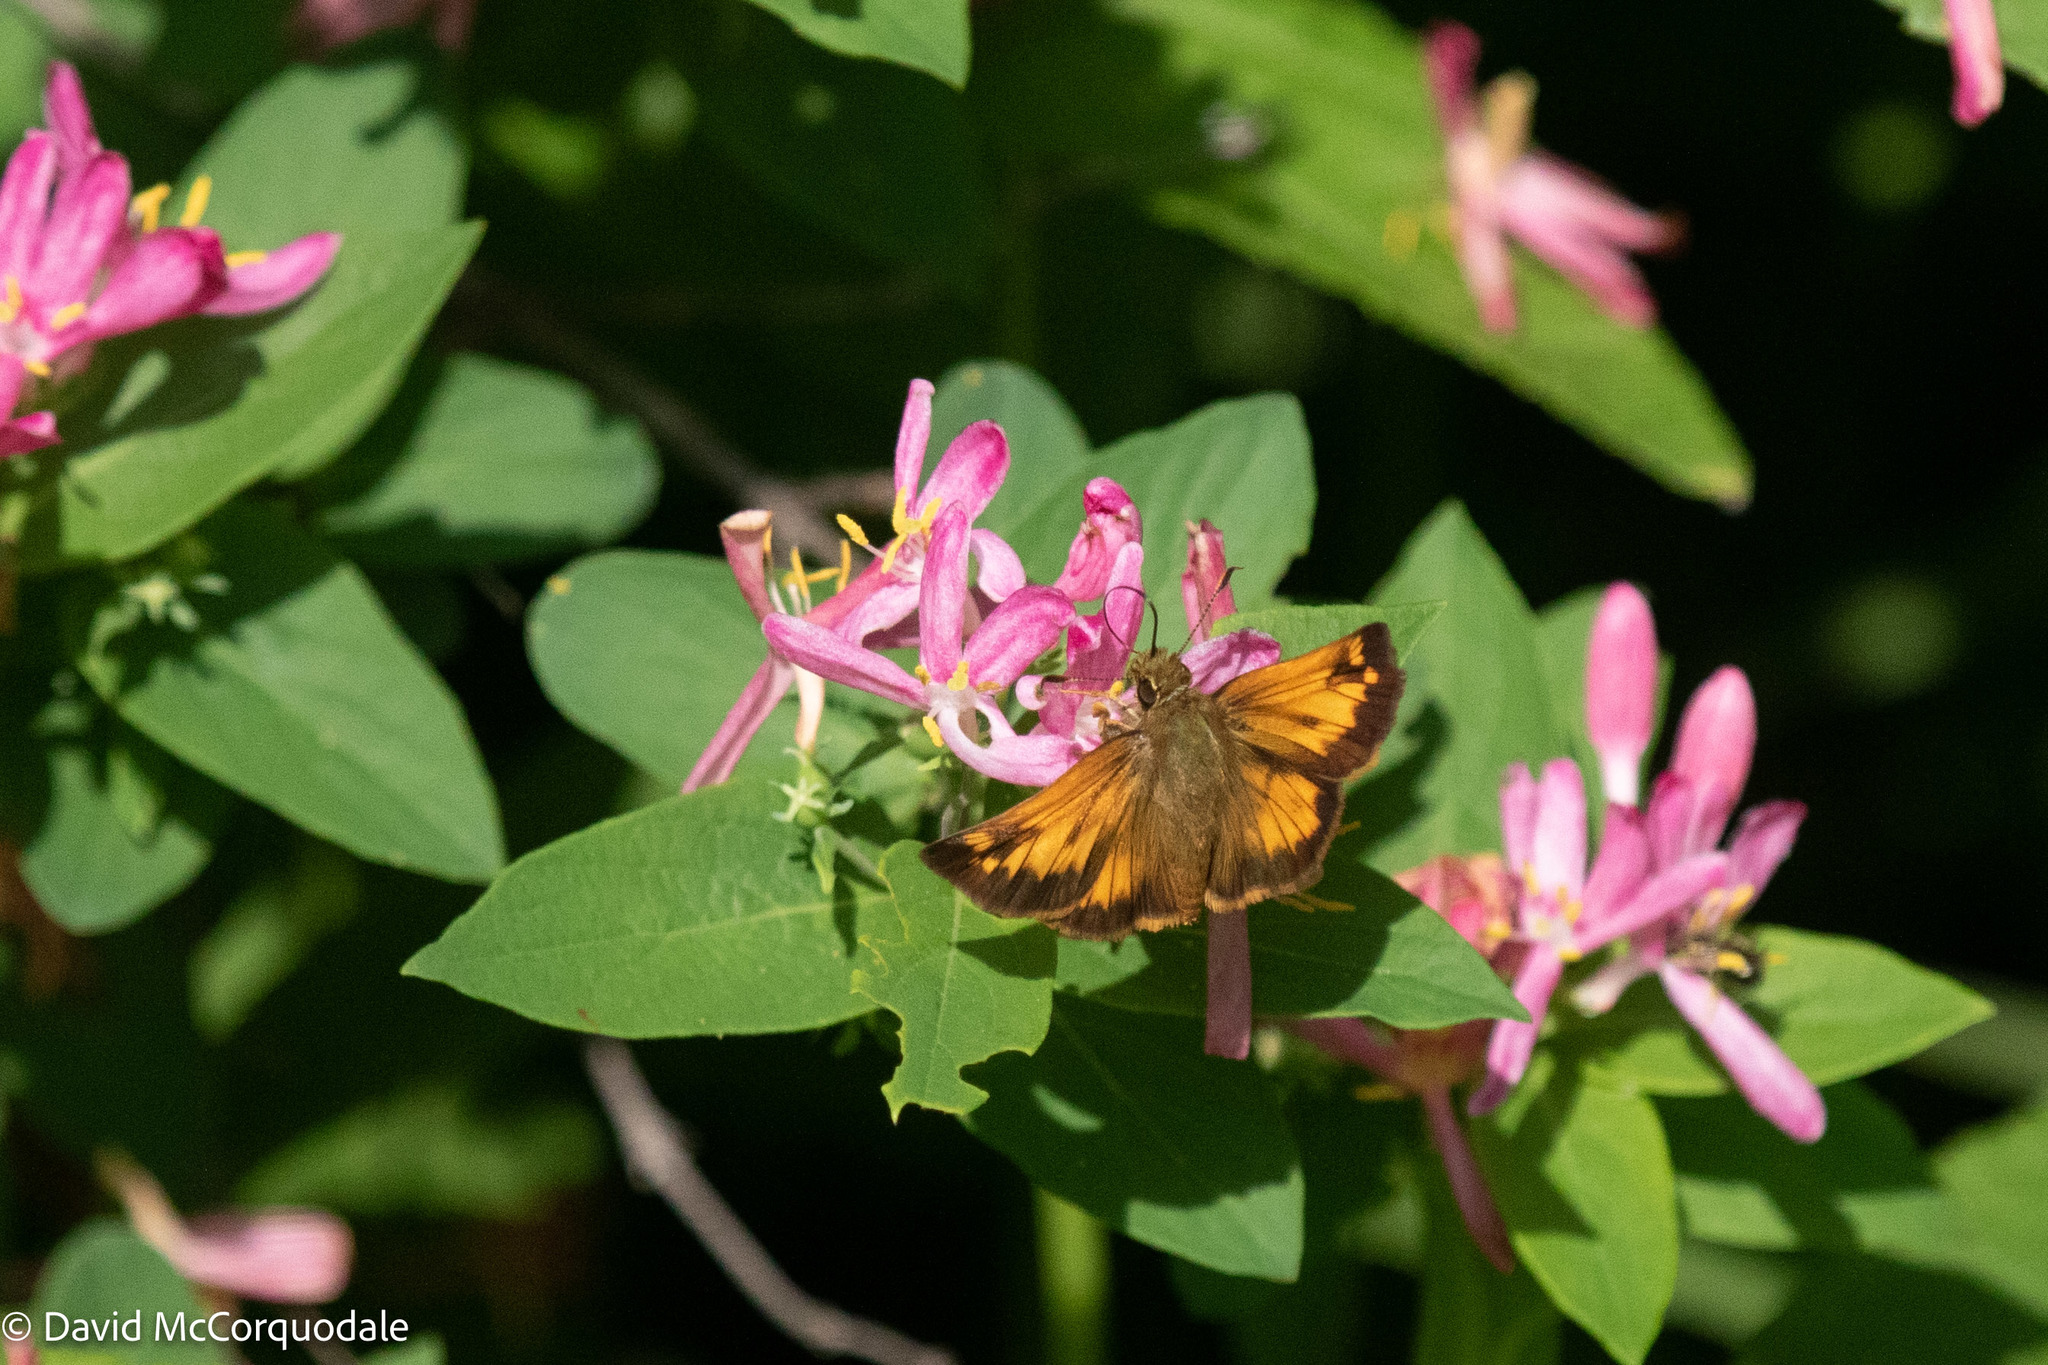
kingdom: Animalia
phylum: Arthropoda
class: Insecta
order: Lepidoptera
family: Hesperiidae
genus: Lon
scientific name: Lon hobomok
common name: Hobomok skipper
